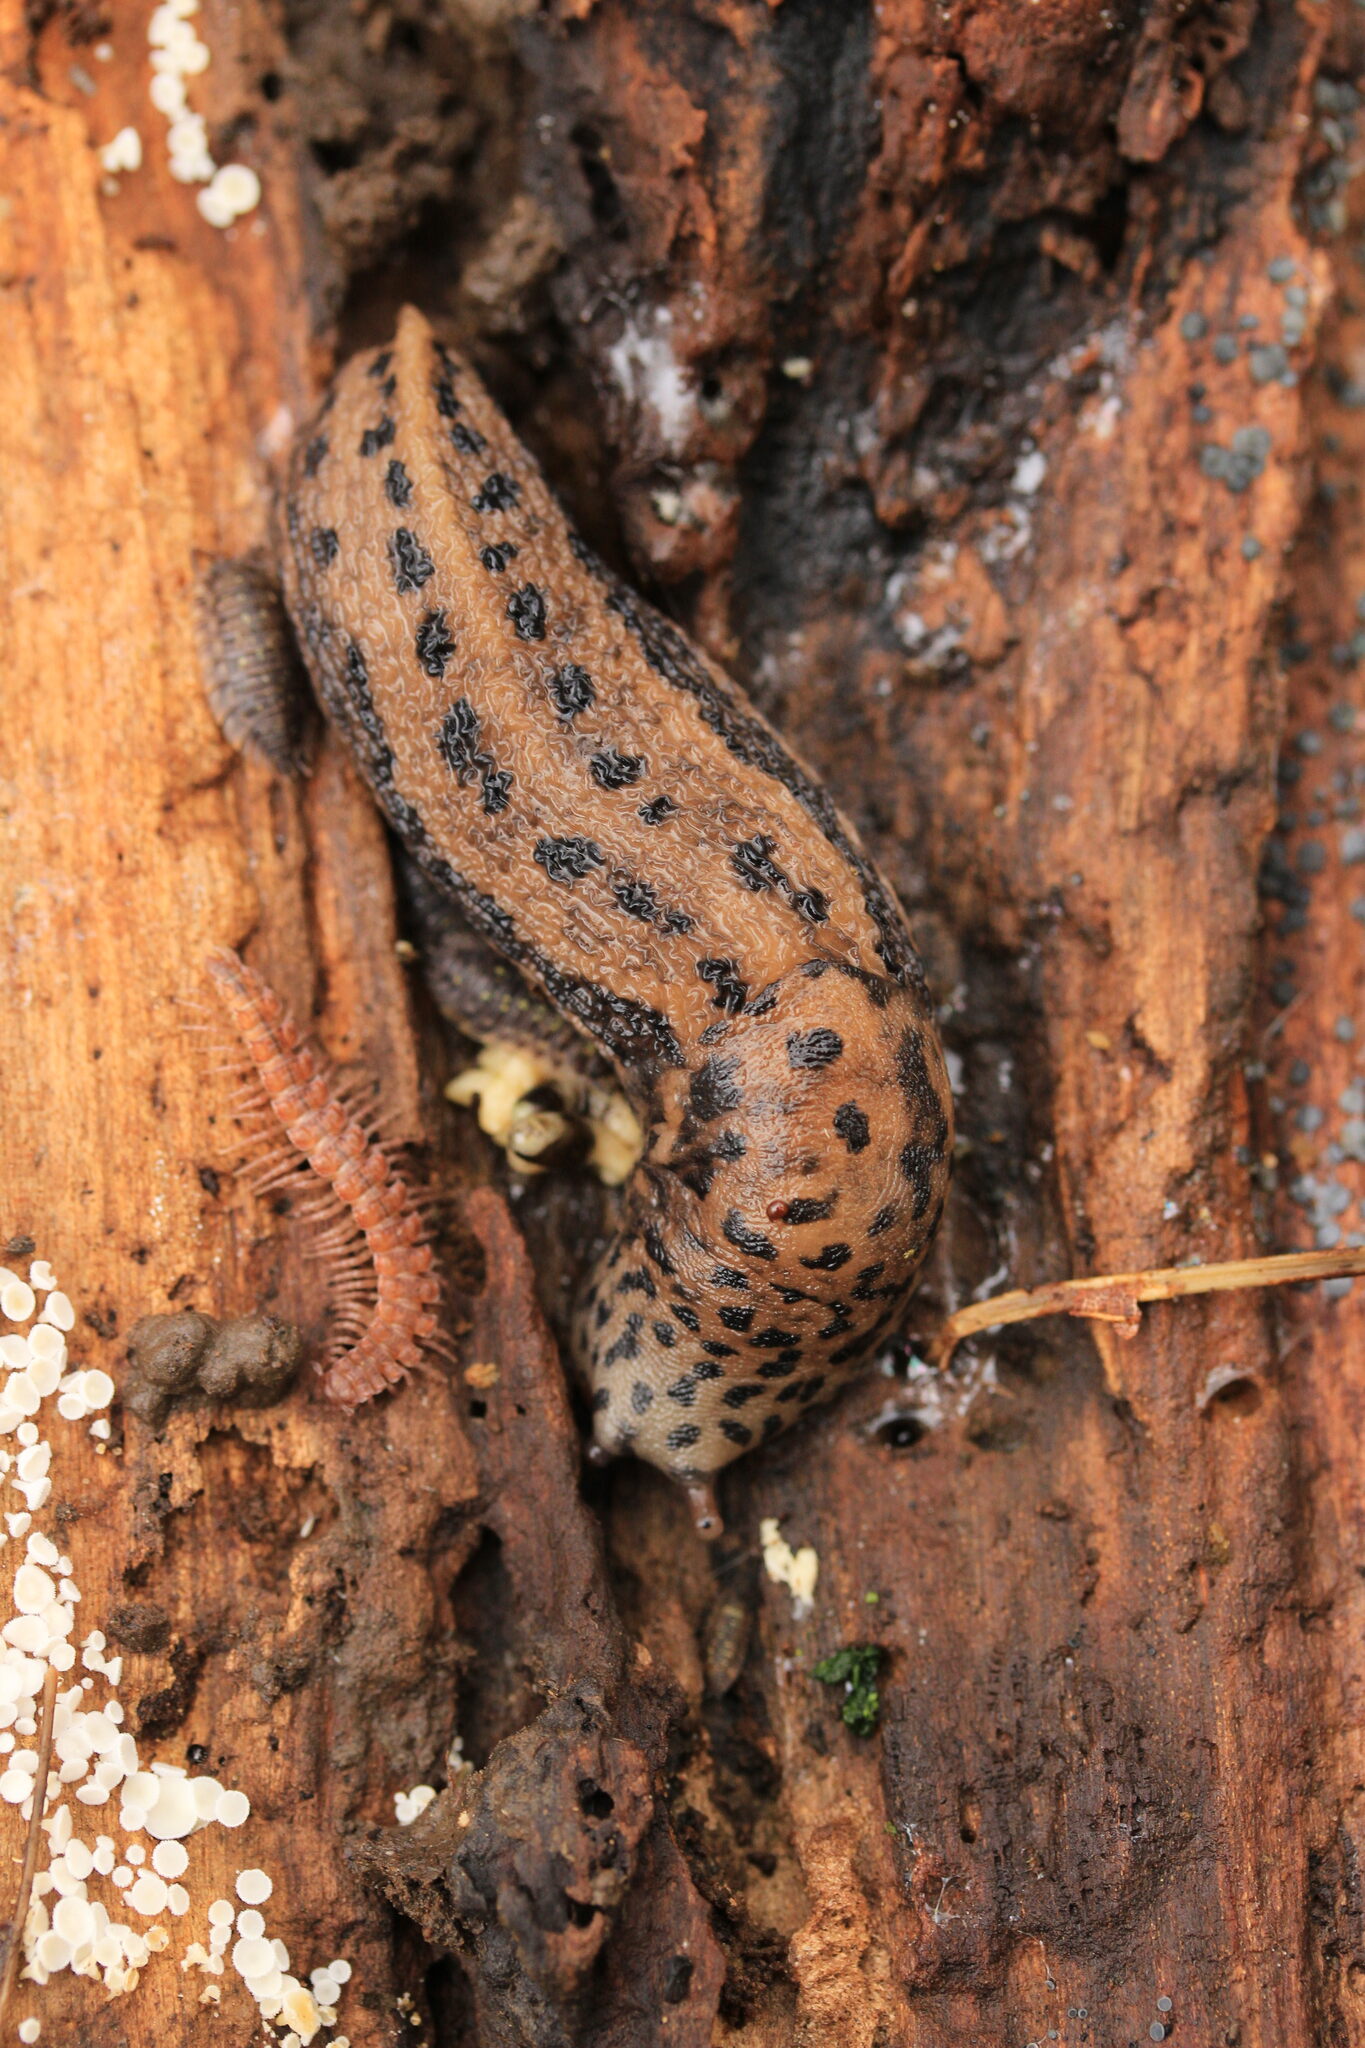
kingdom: Animalia
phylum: Mollusca
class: Gastropoda
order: Stylommatophora
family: Limacidae
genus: Limax
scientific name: Limax maximus
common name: Great grey slug
